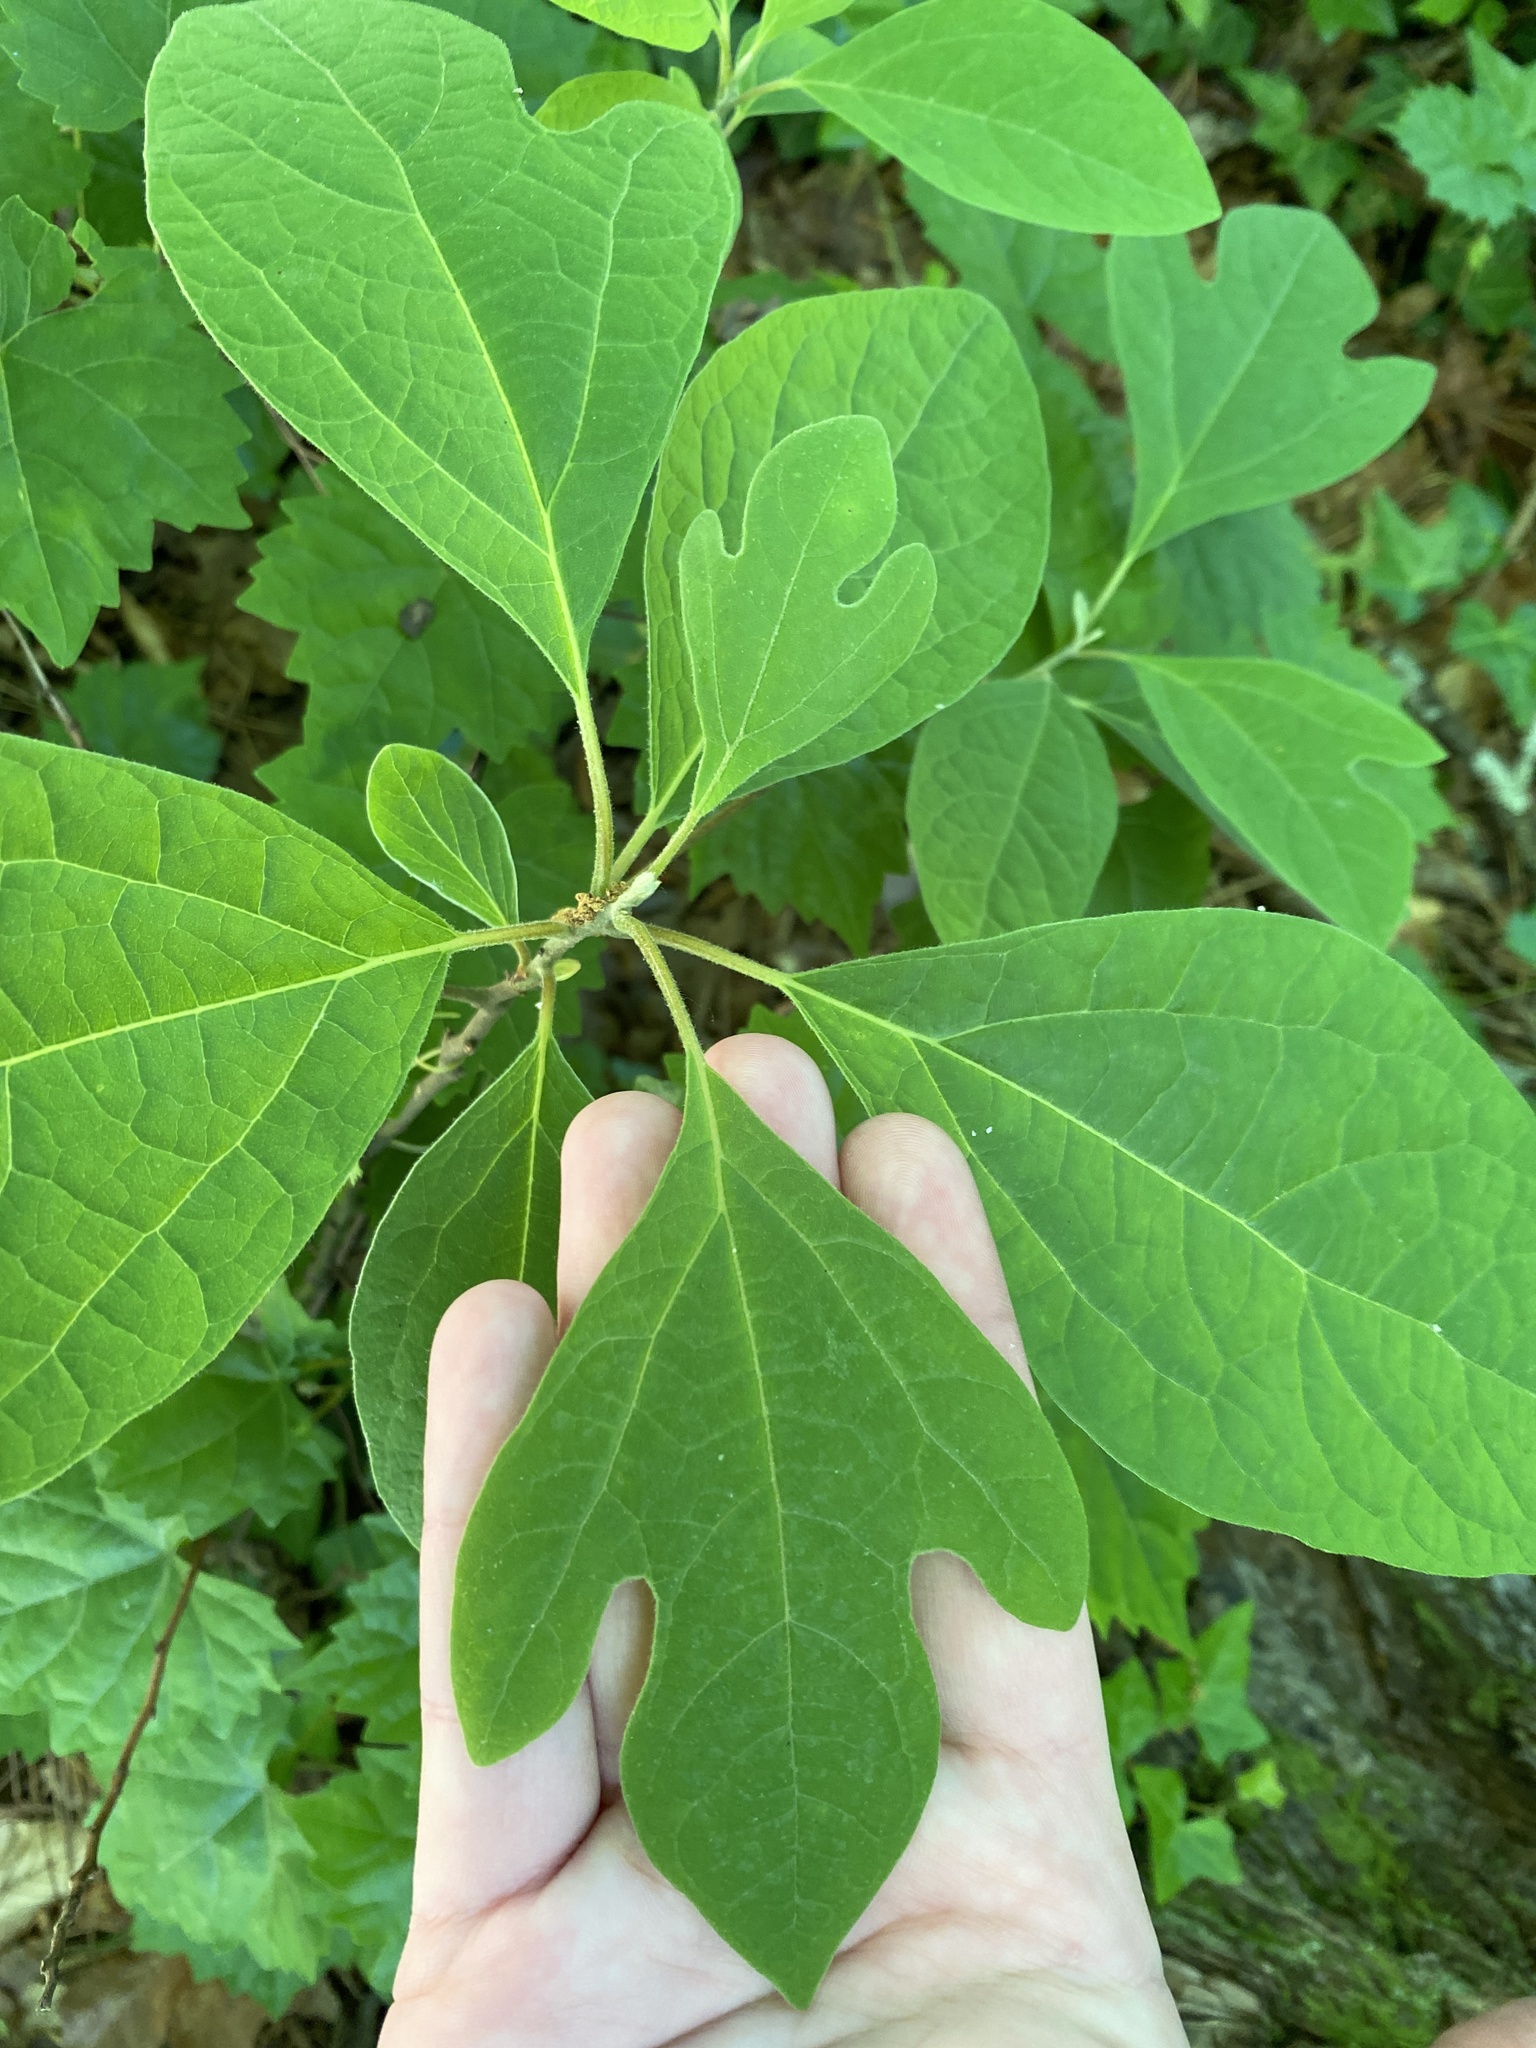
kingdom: Plantae
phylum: Tracheophyta
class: Magnoliopsida
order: Laurales
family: Lauraceae
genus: Sassafras
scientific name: Sassafras albidum
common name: Sassafras
